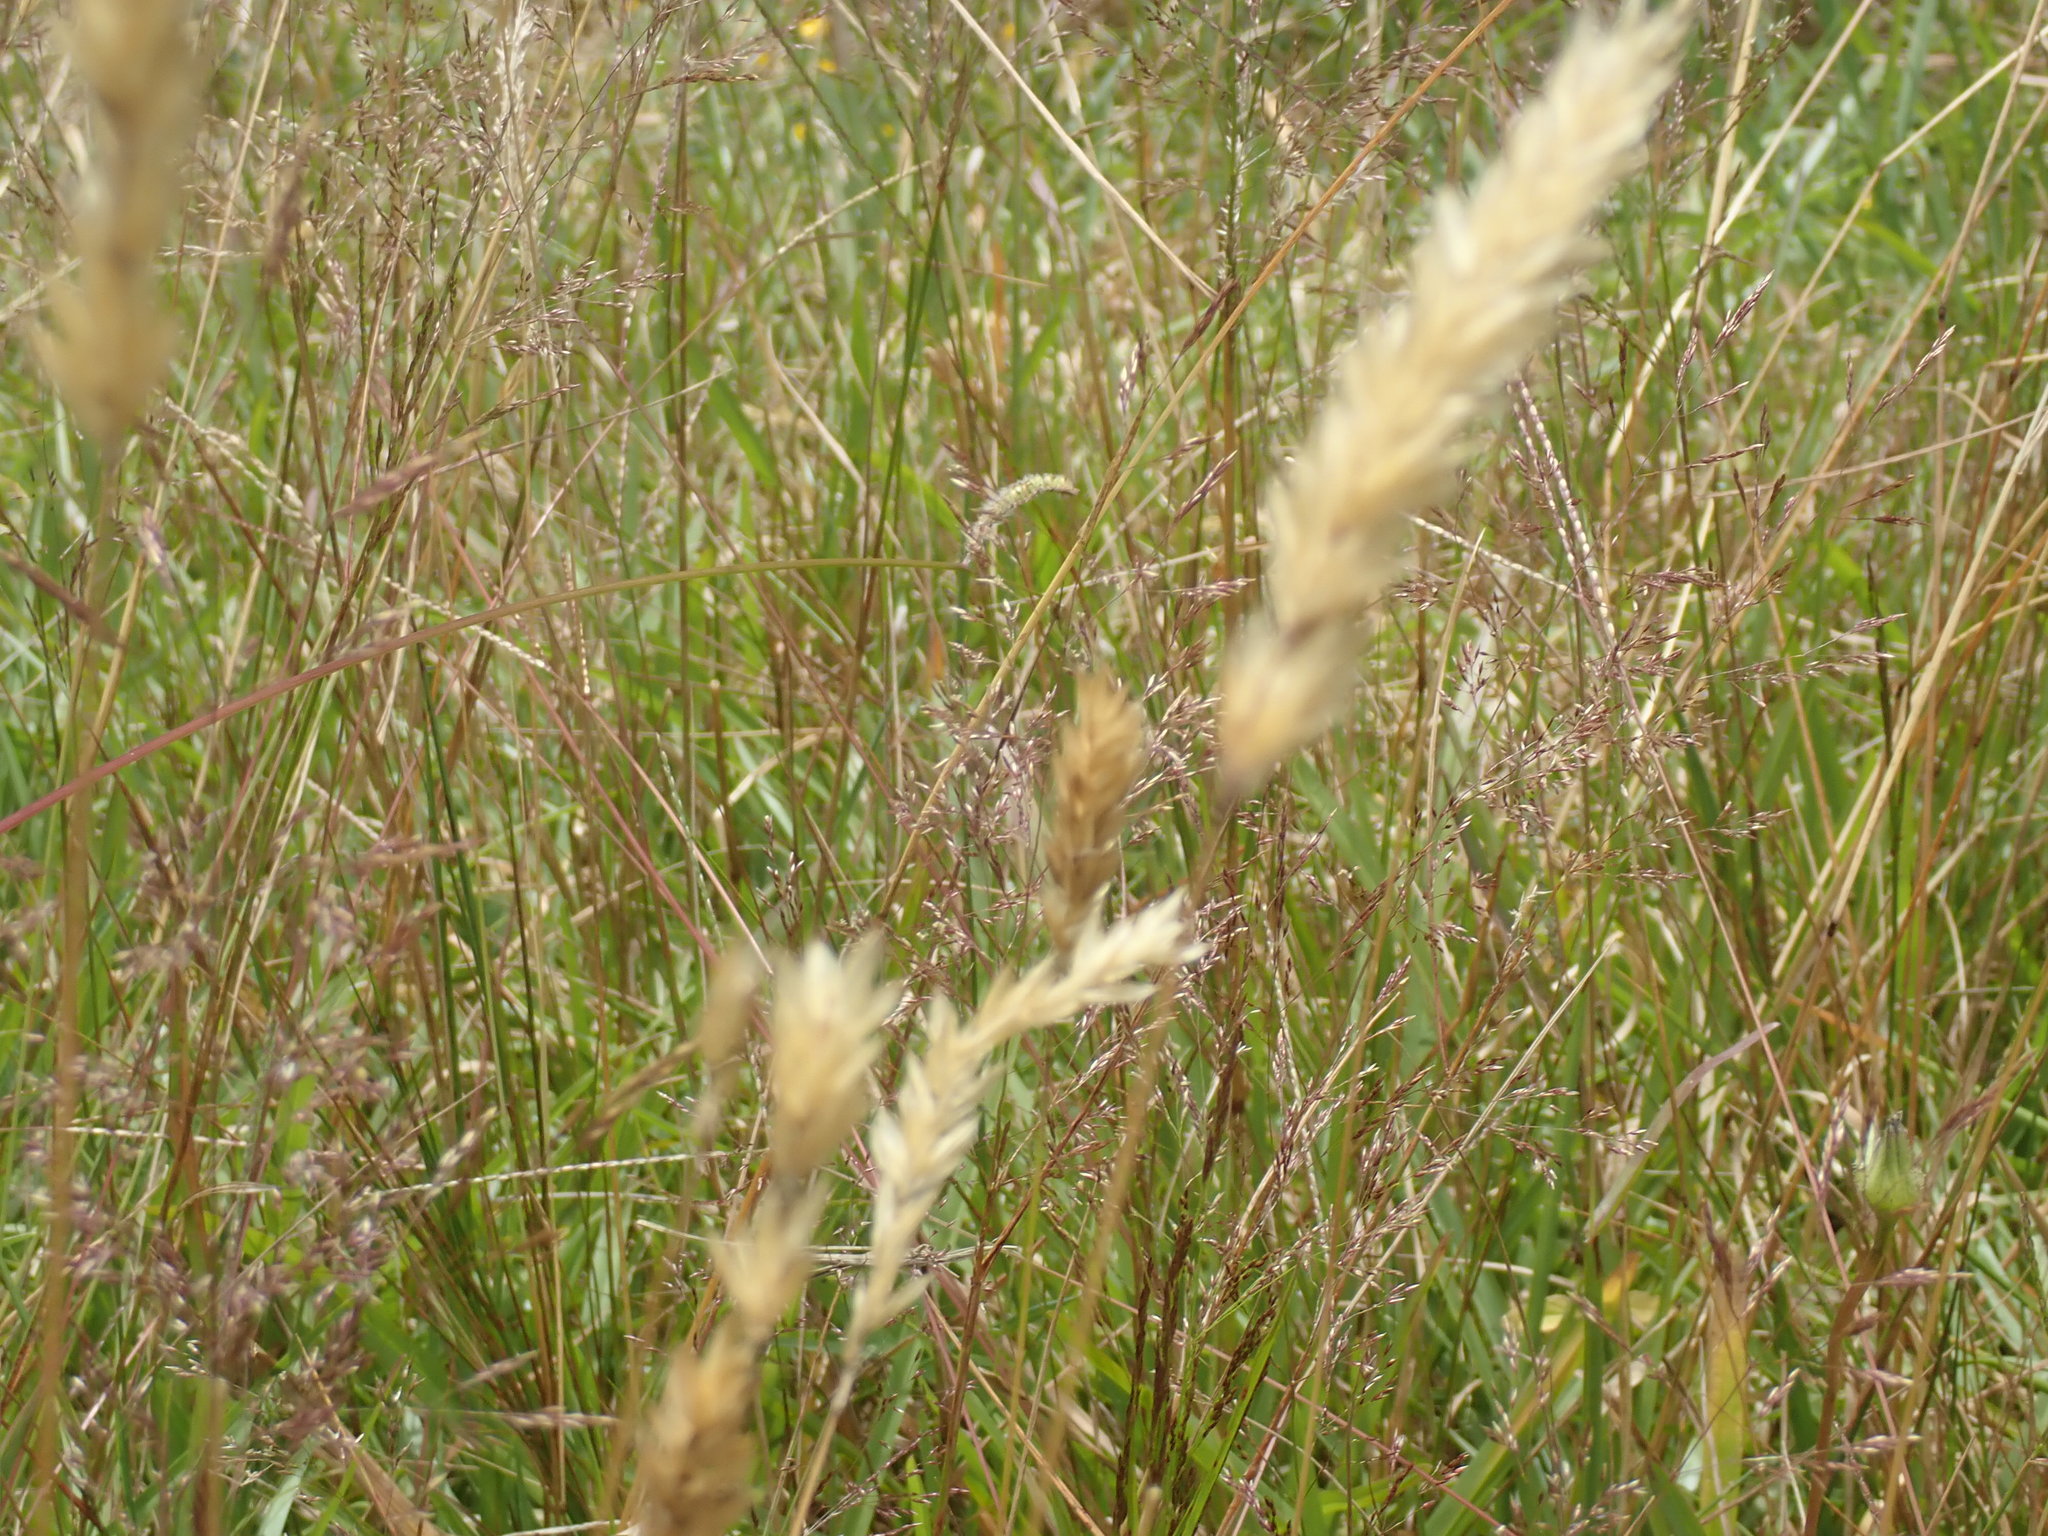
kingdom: Plantae
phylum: Tracheophyta
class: Liliopsida
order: Poales
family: Poaceae
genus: Anthoxanthum
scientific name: Anthoxanthum odoratum
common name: Sweet vernalgrass
